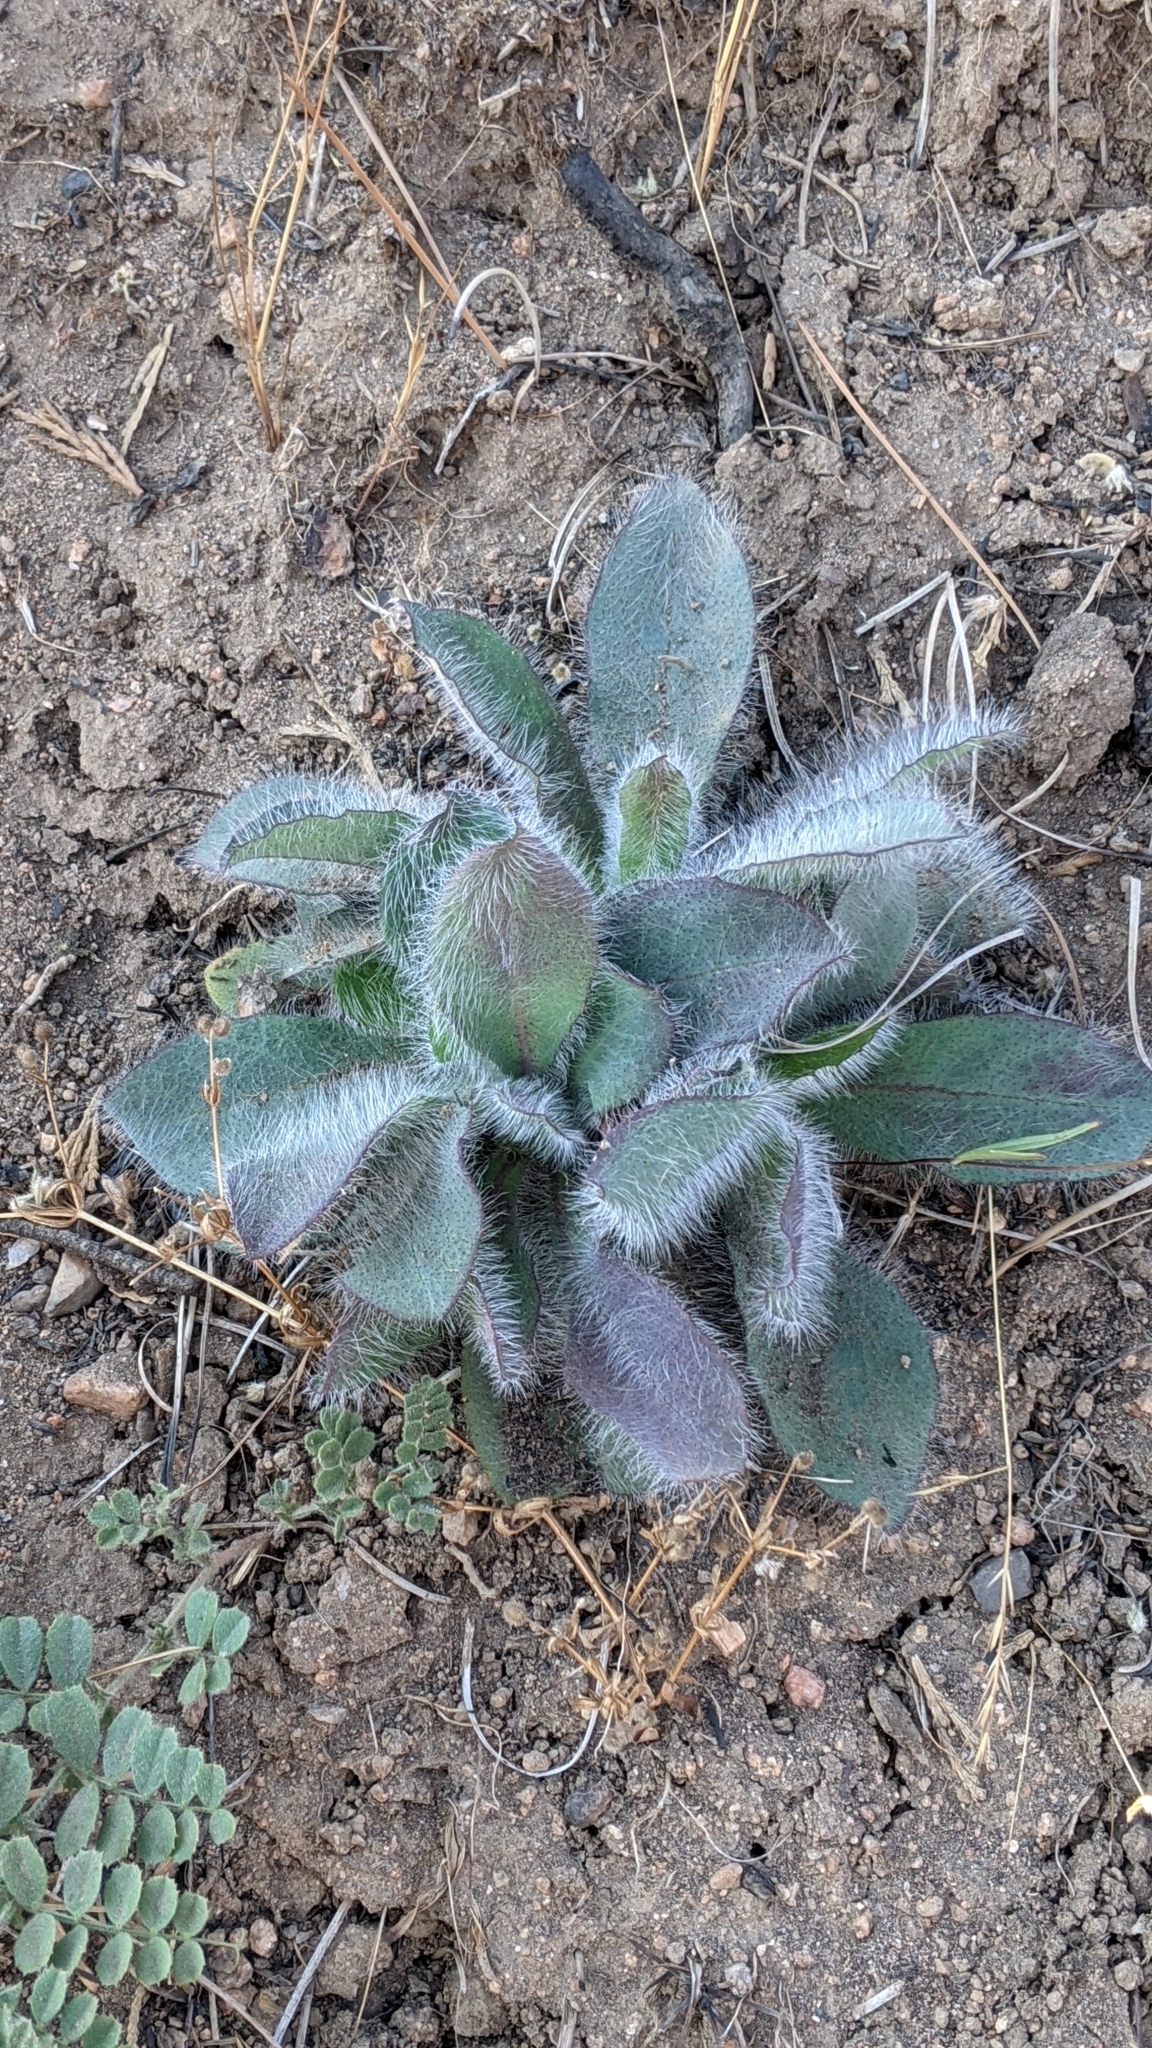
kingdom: Plantae
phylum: Tracheophyta
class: Magnoliopsida
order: Asterales
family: Asteraceae
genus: Hieracium
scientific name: Hieracium horridum
